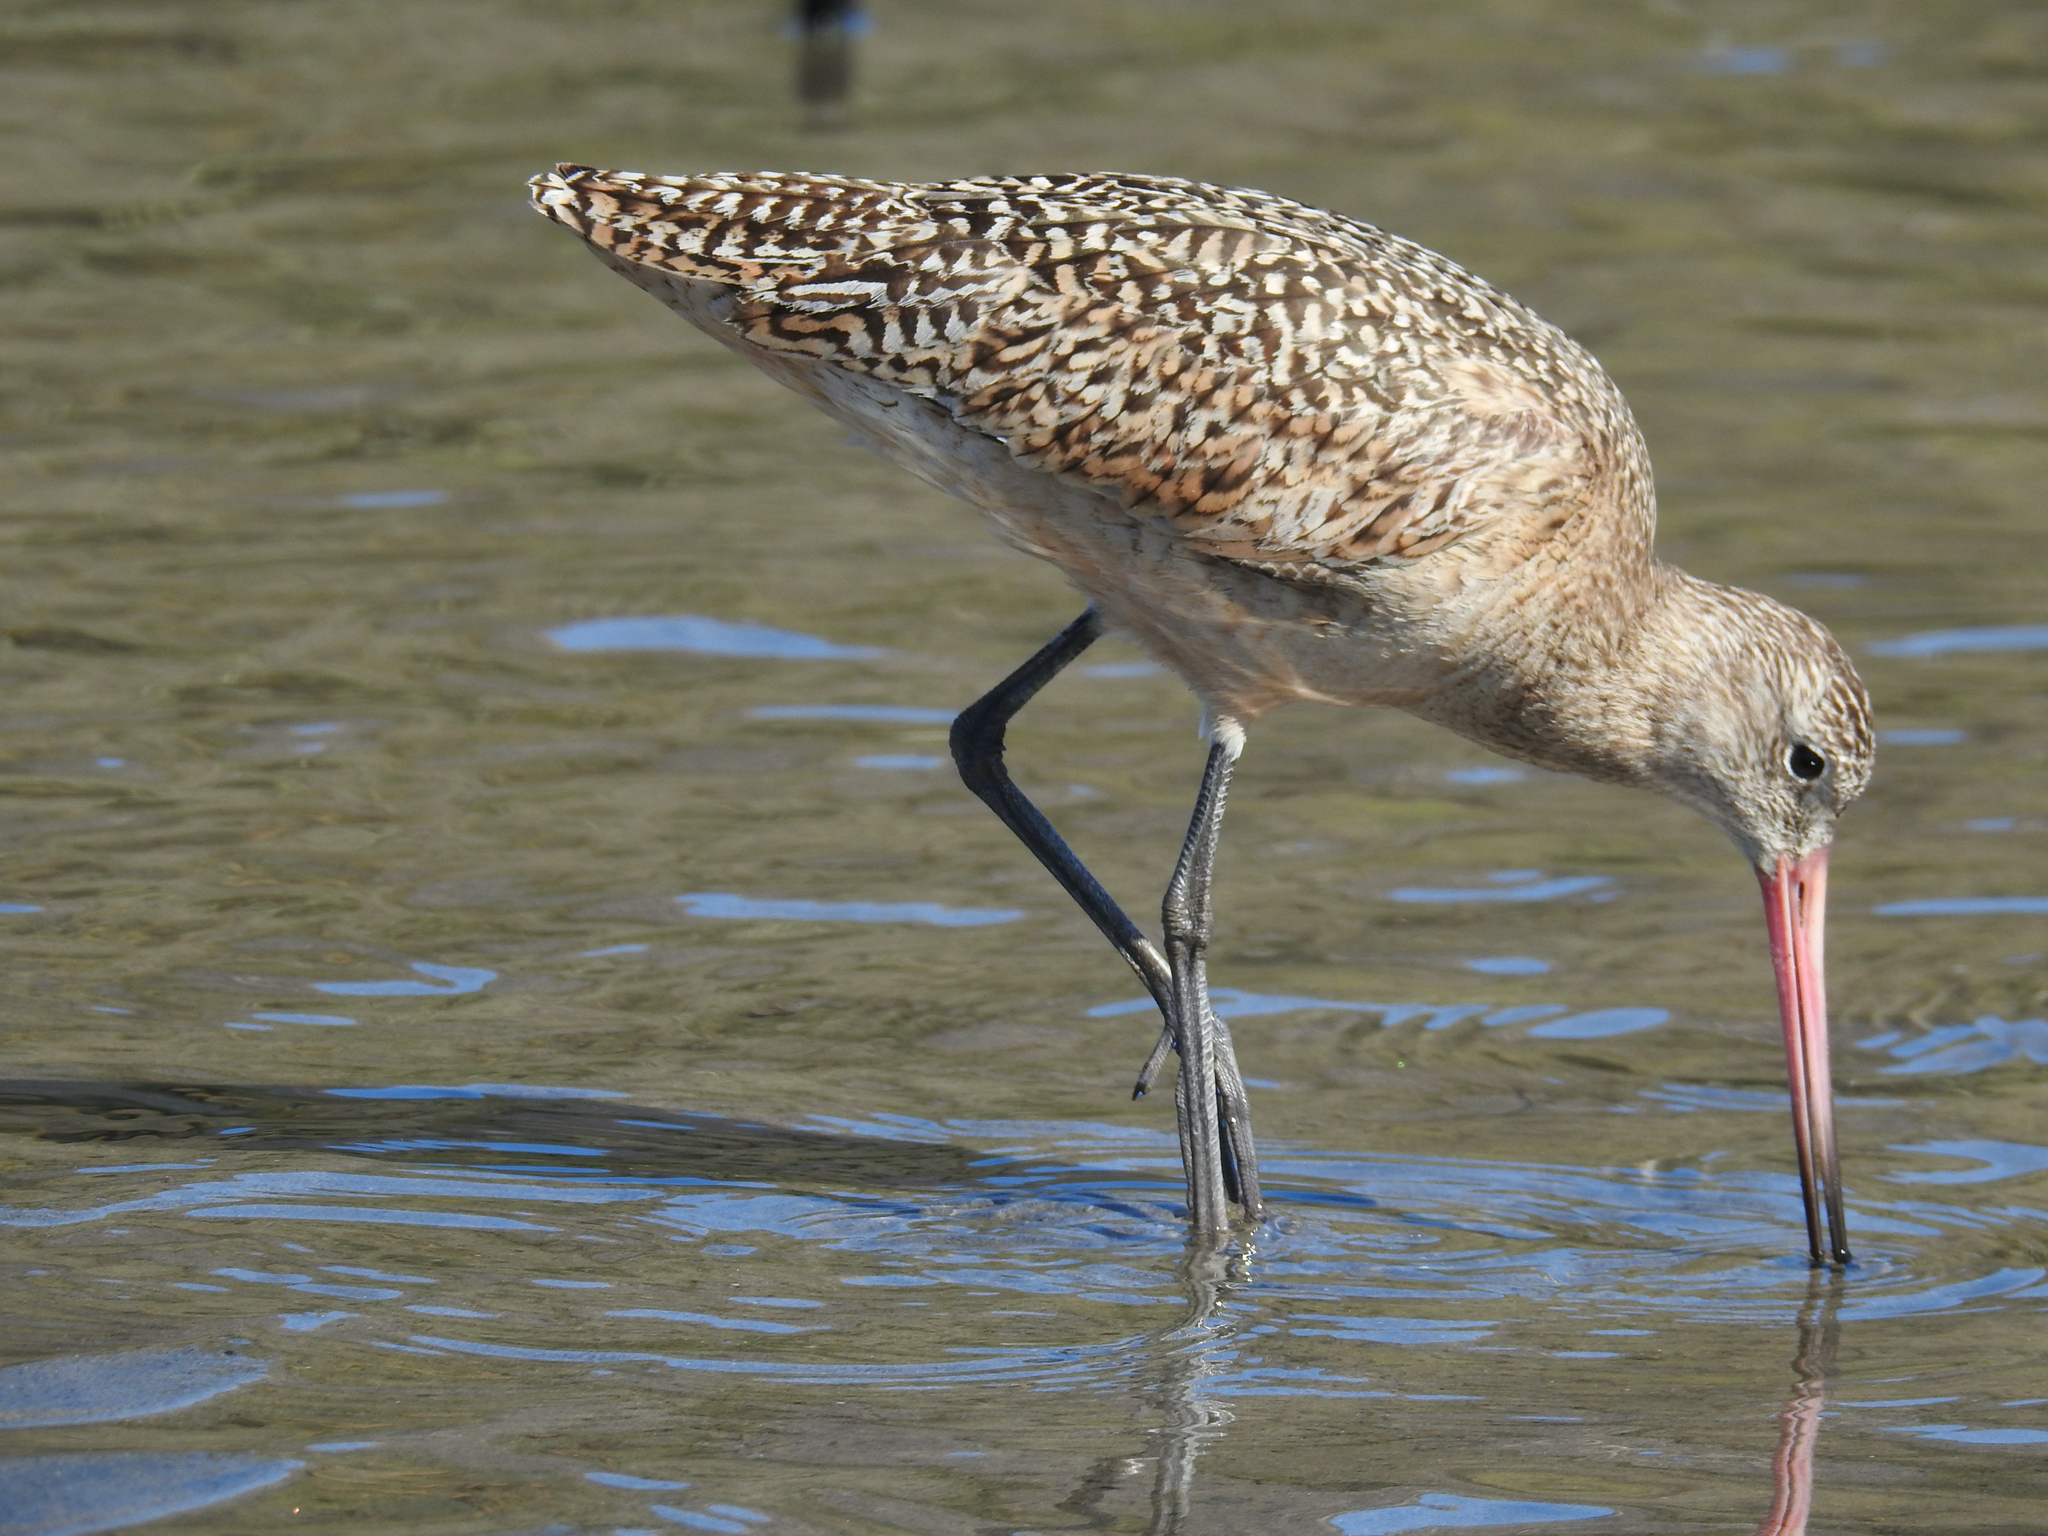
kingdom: Animalia
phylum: Chordata
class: Aves
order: Charadriiformes
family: Scolopacidae
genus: Limosa
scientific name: Limosa fedoa
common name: Marbled godwit
